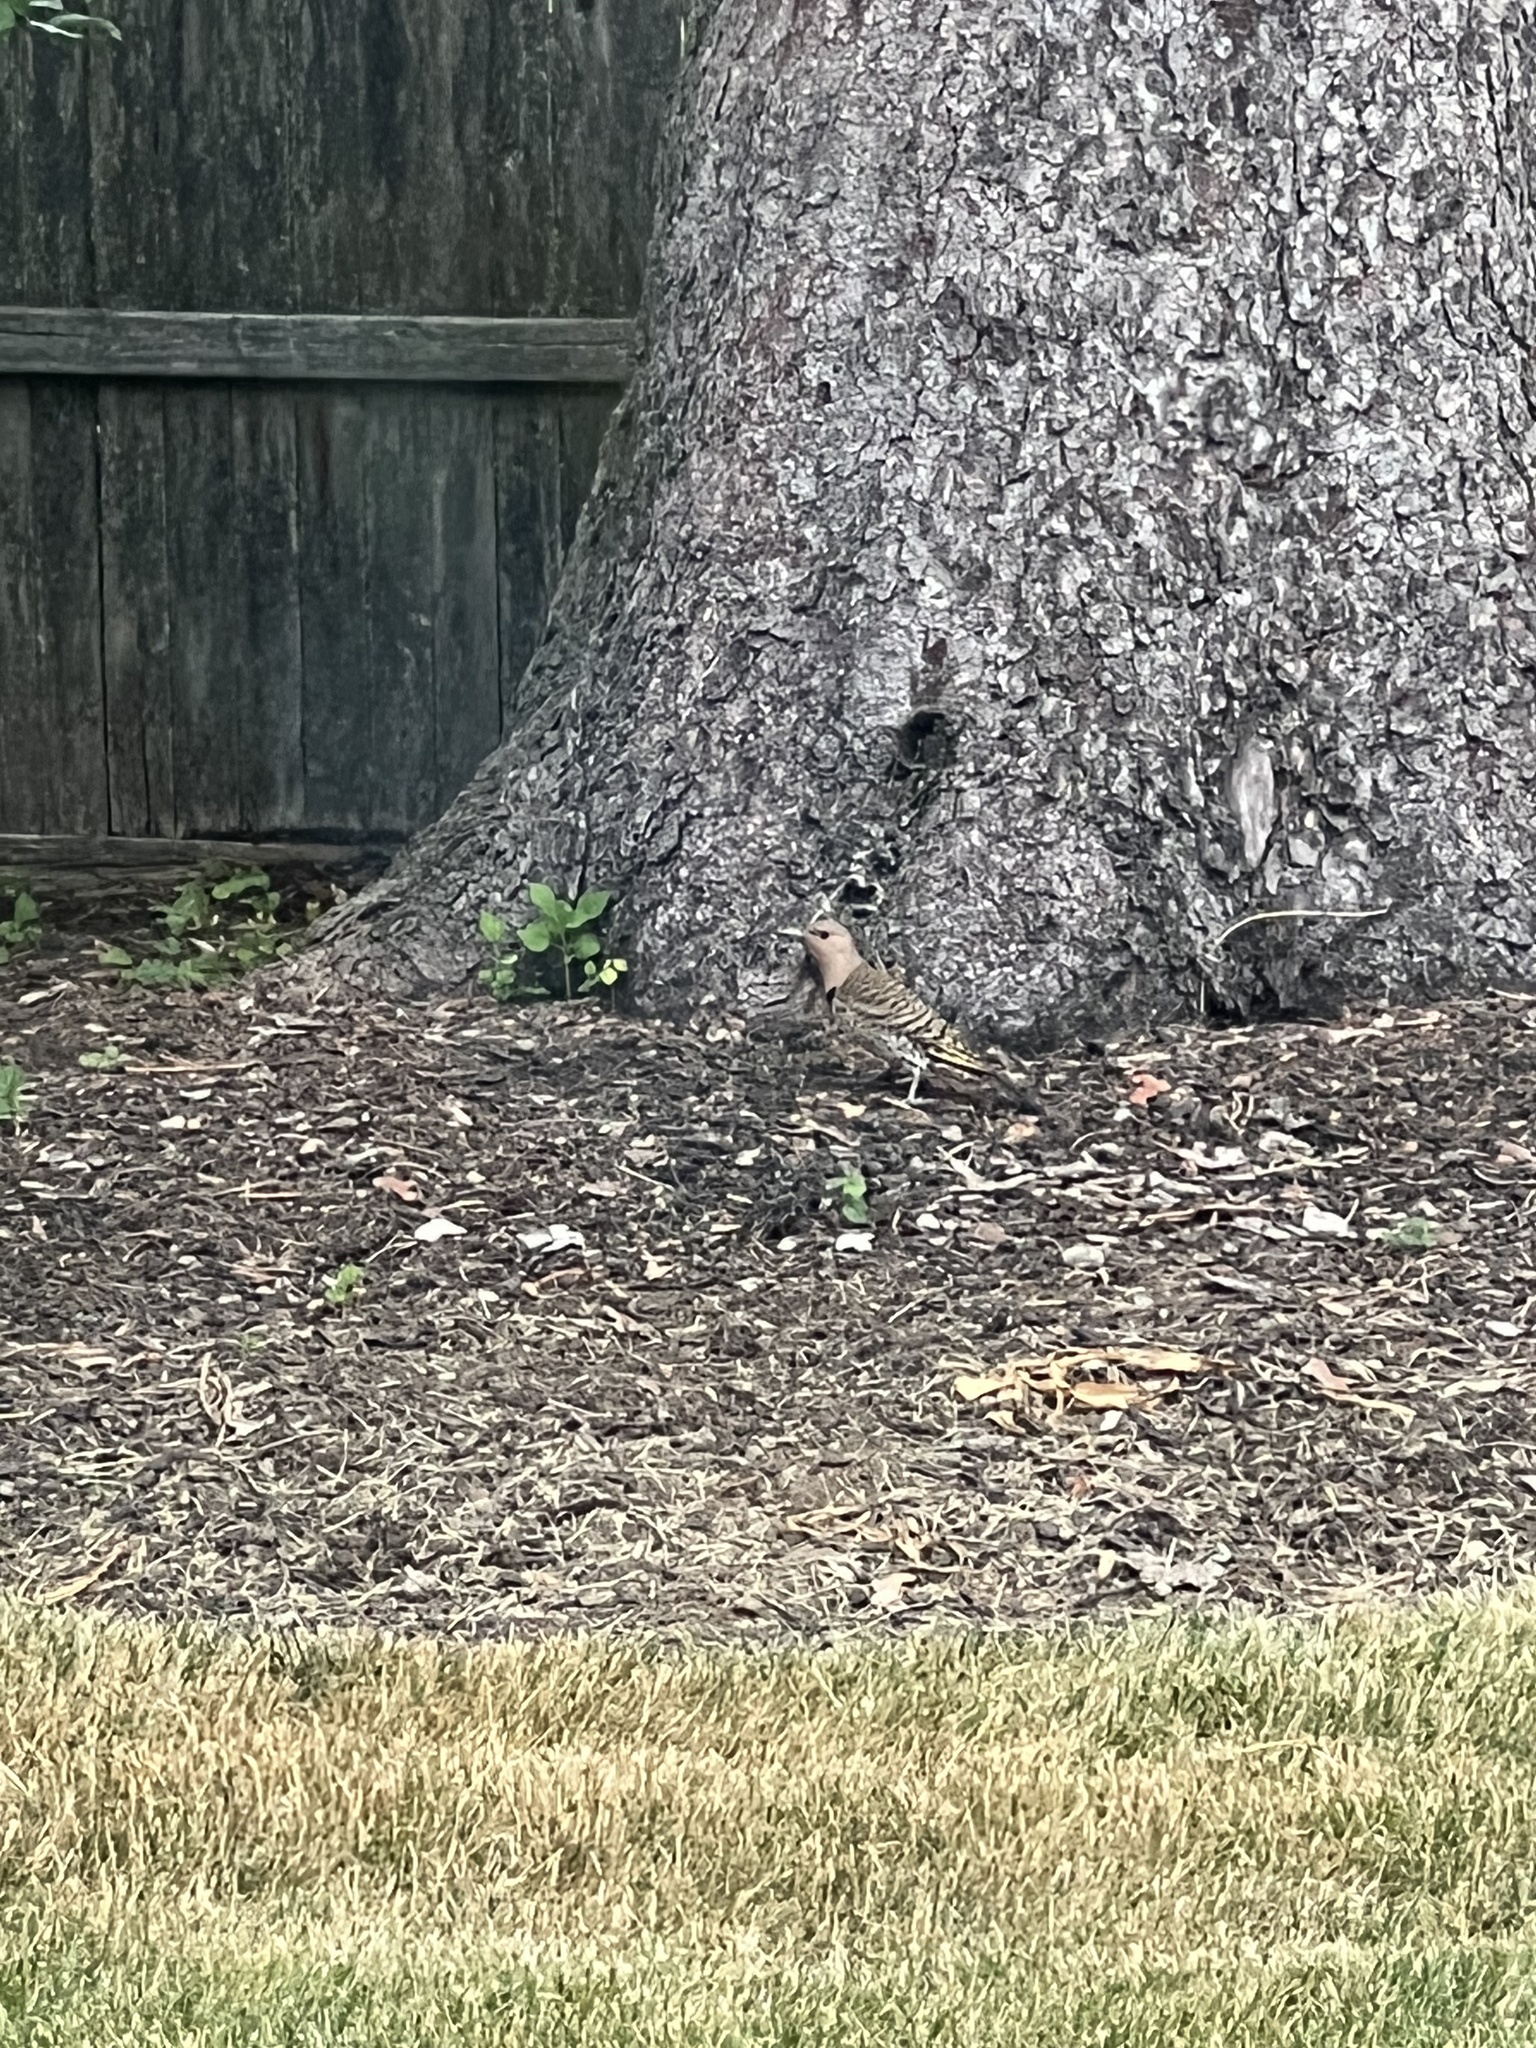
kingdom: Animalia
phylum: Chordata
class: Aves
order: Piciformes
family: Picidae
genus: Colaptes
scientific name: Colaptes auratus
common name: Northern flicker
